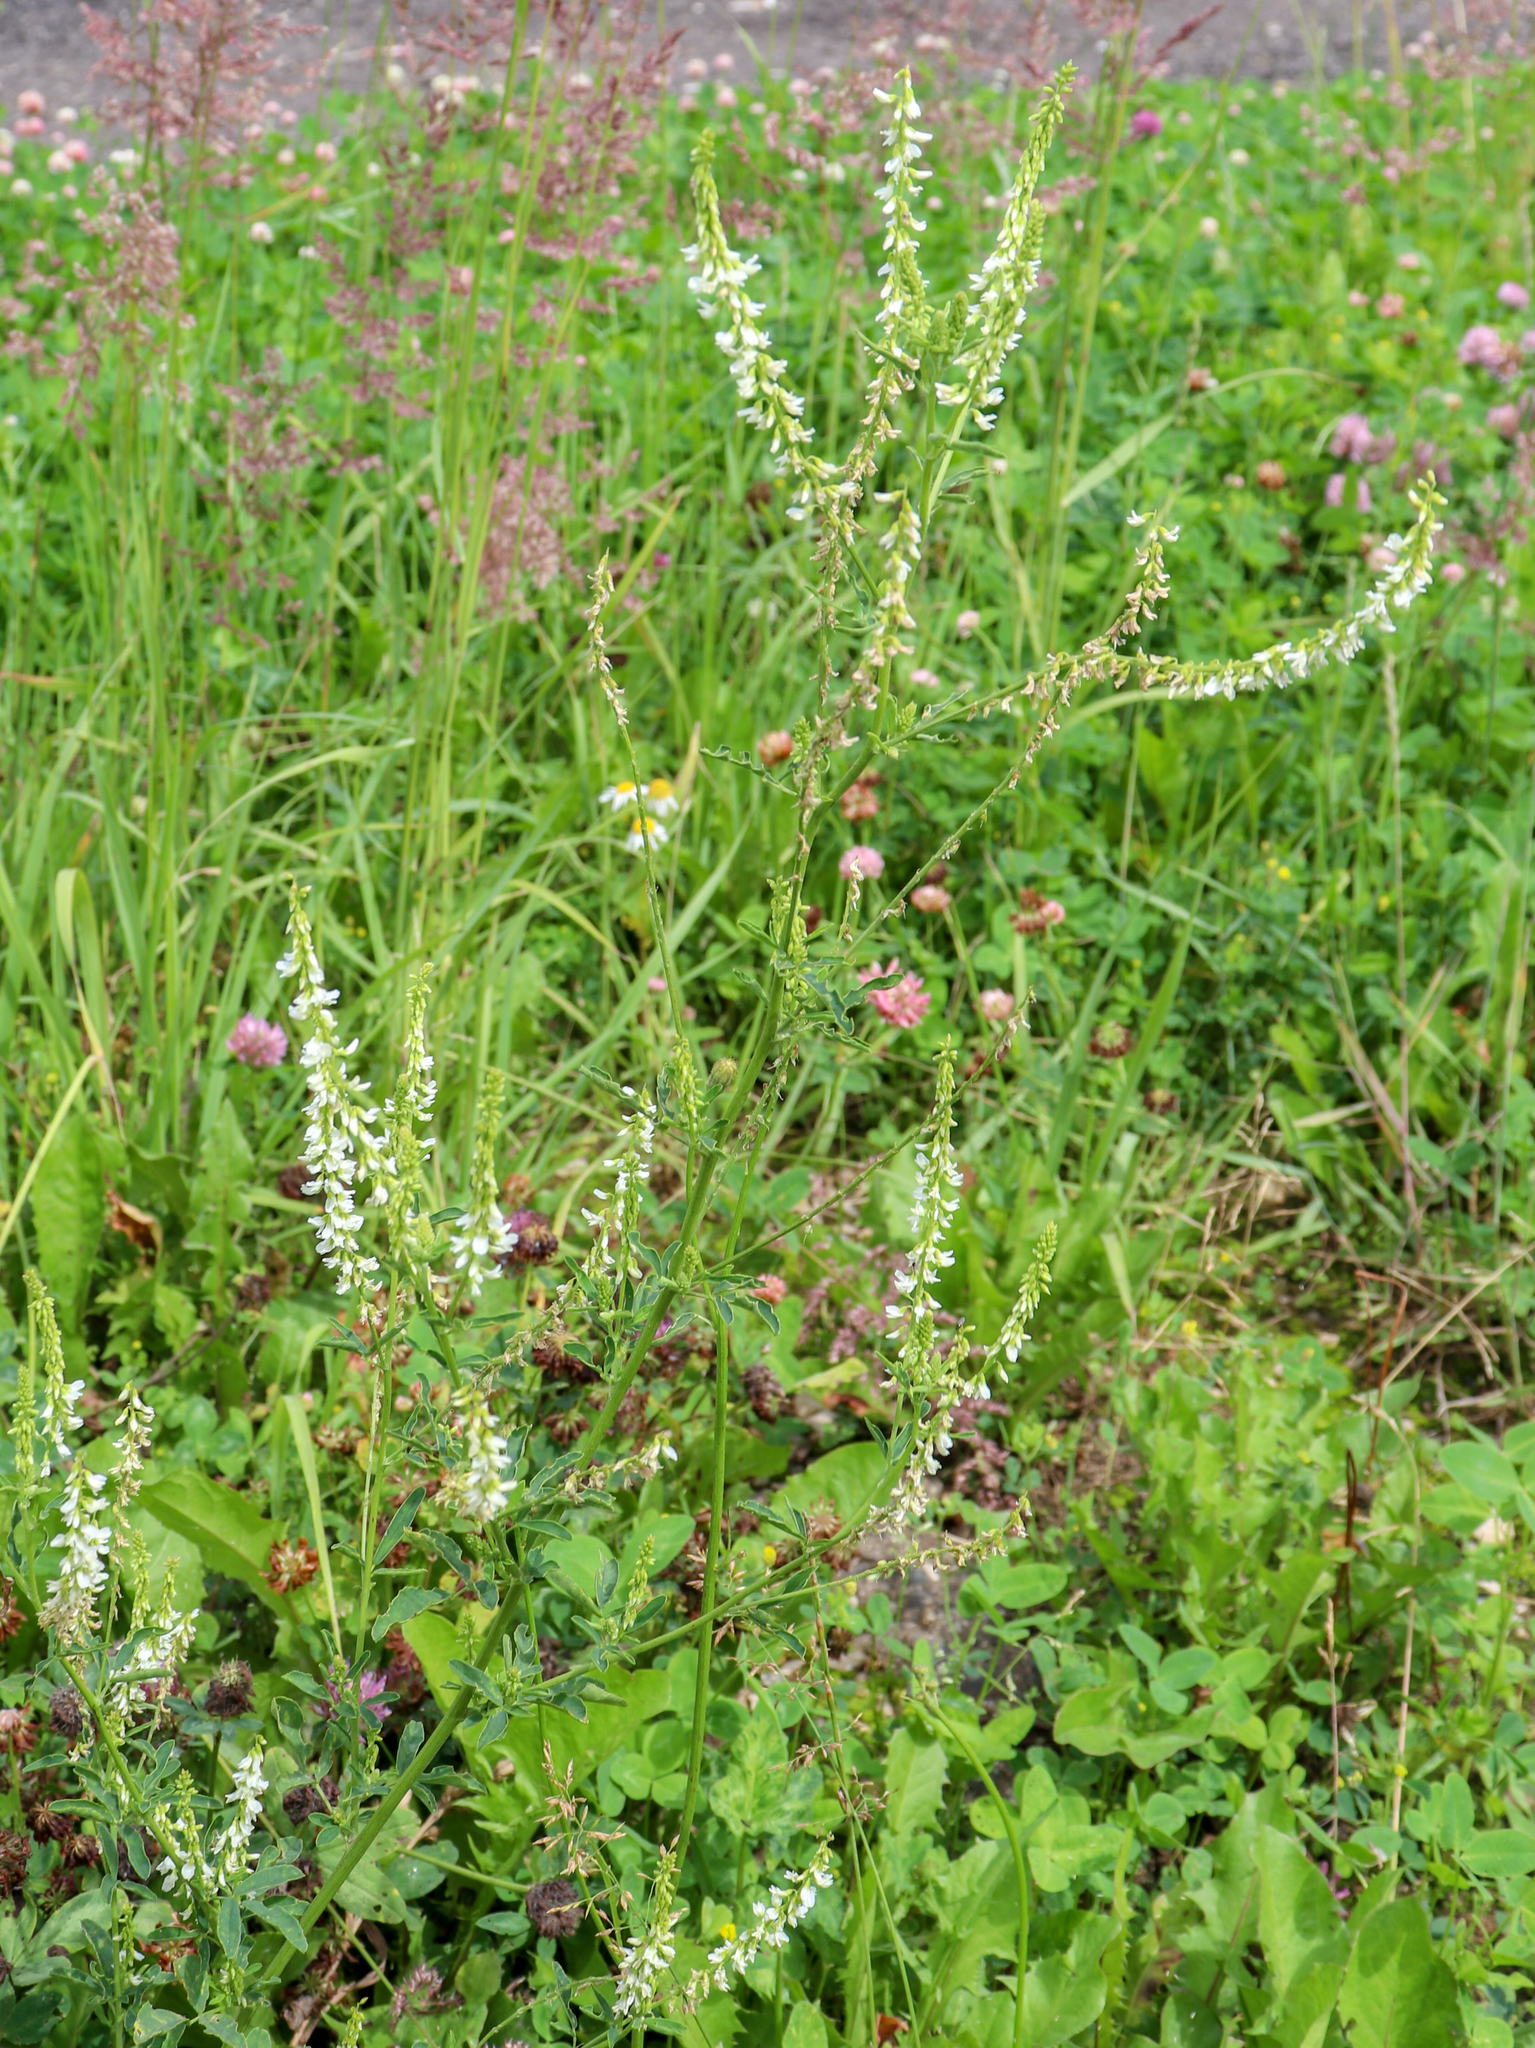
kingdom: Plantae
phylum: Tracheophyta
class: Magnoliopsida
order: Fabales
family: Fabaceae
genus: Melilotus
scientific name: Melilotus albus
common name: White melilot
